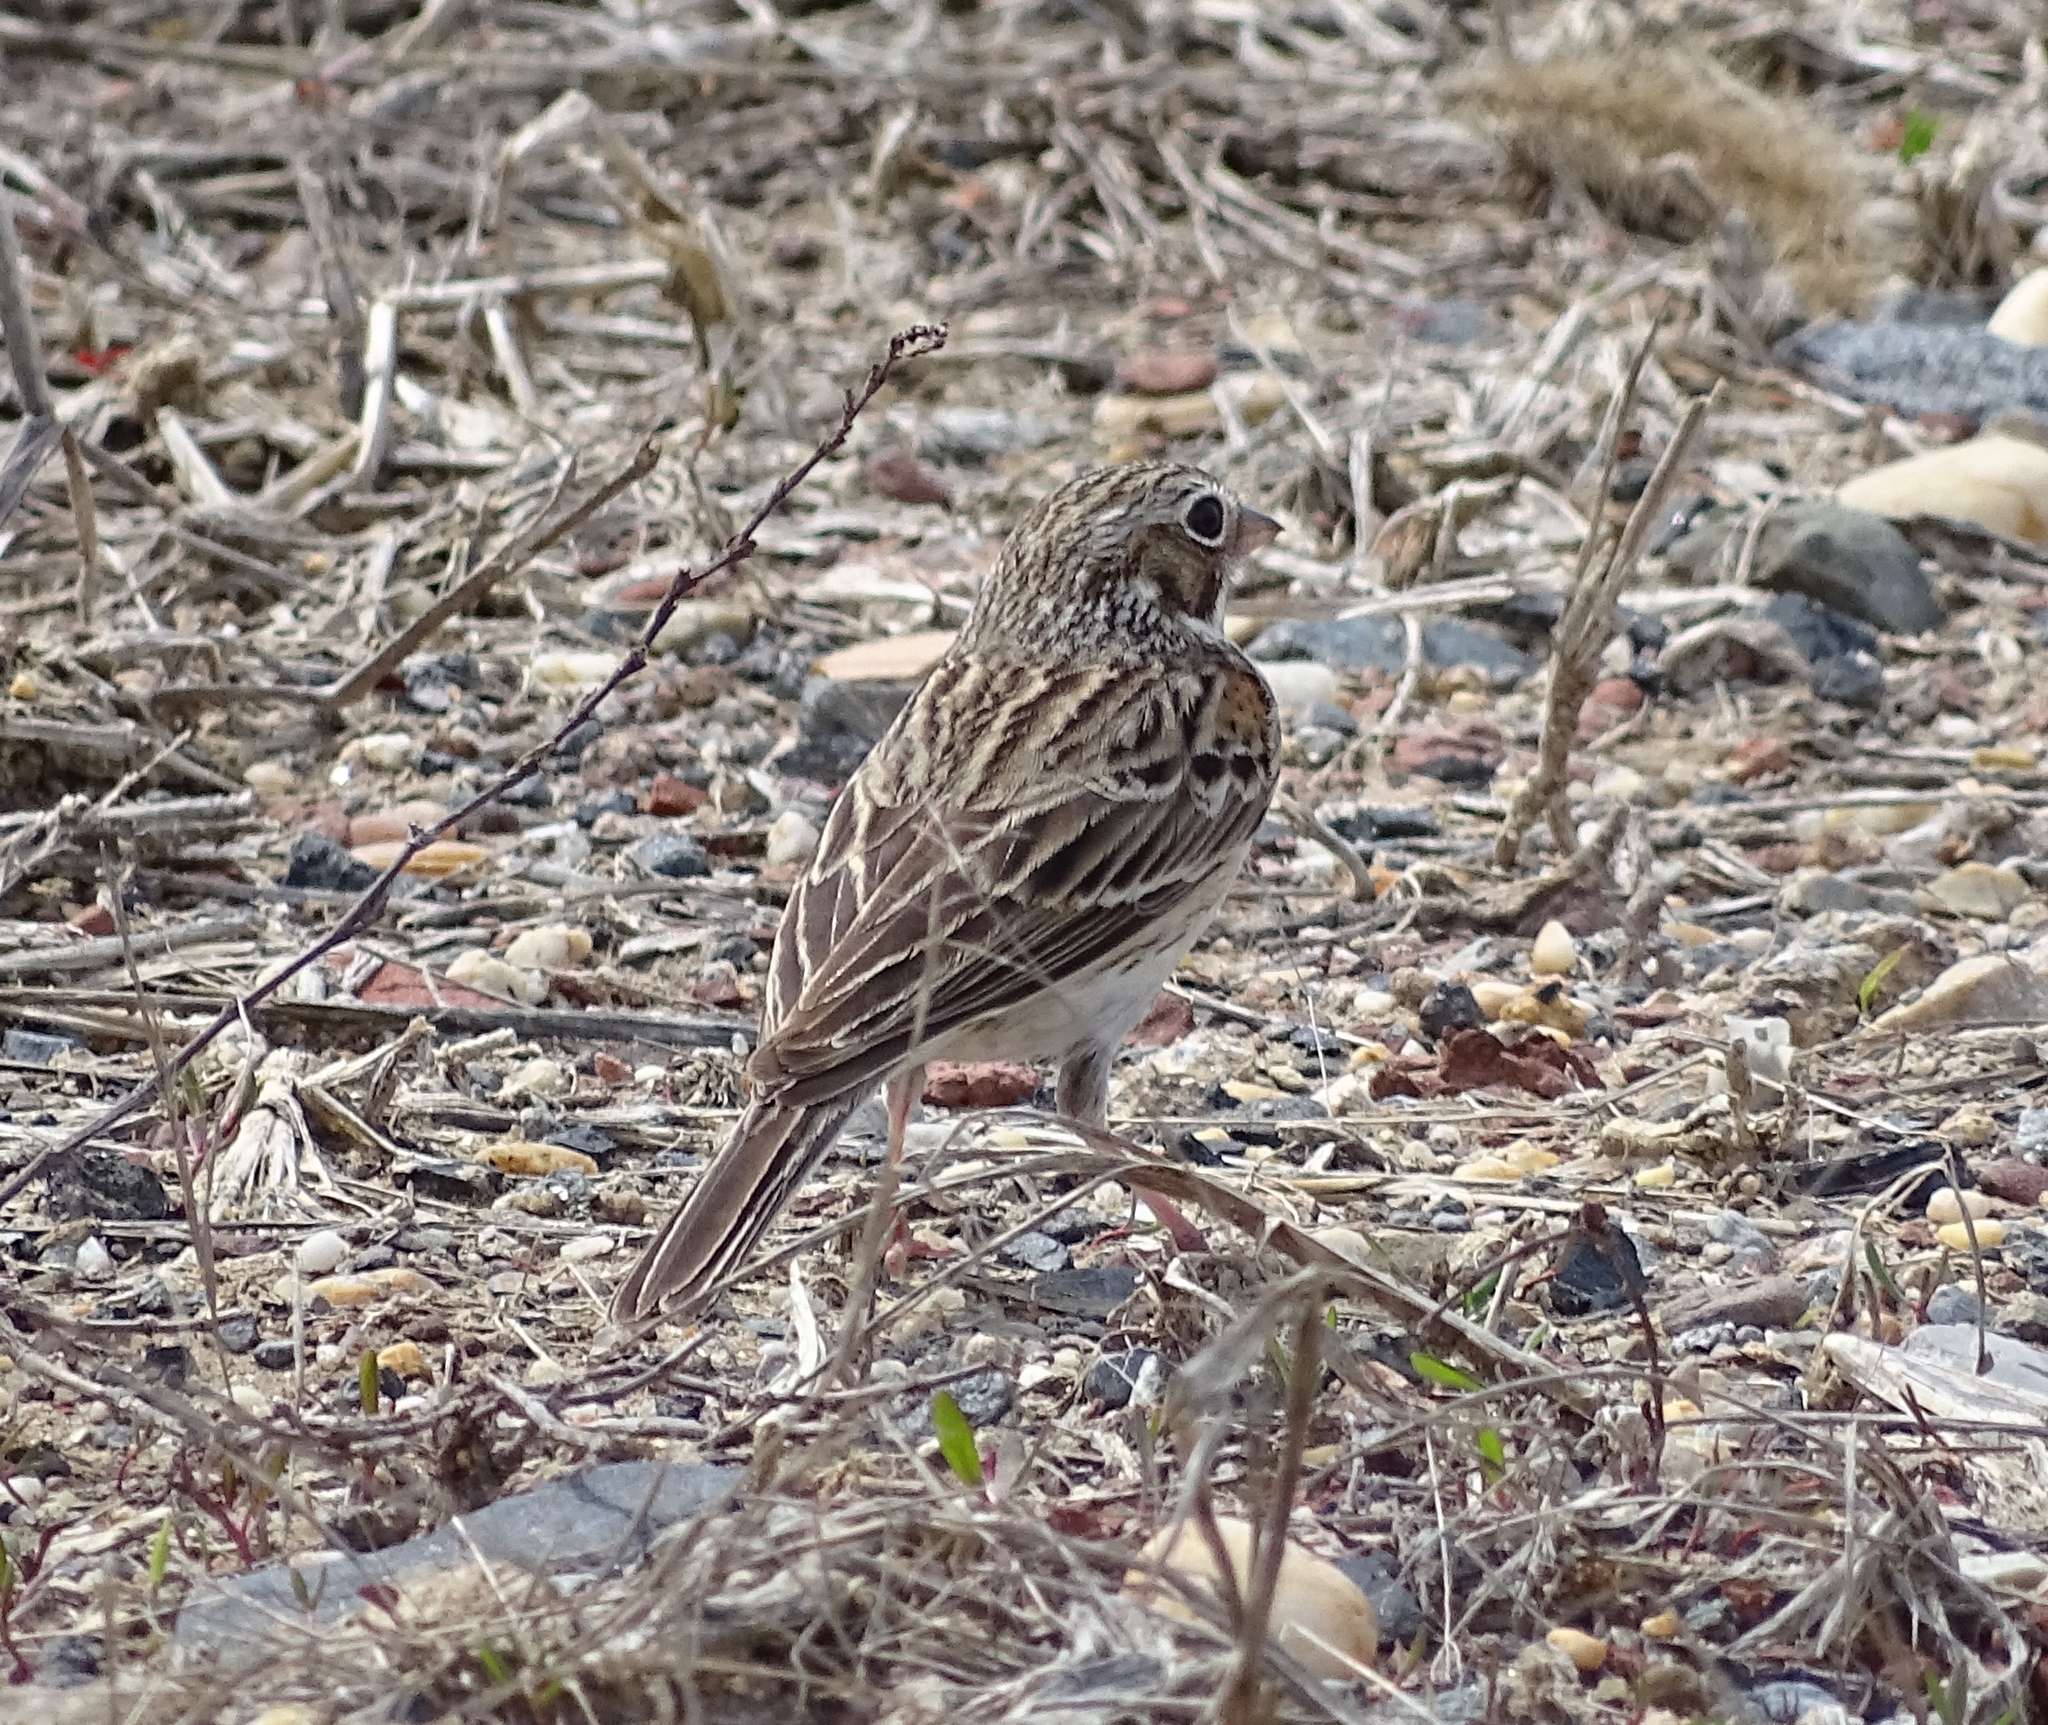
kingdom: Animalia
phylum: Chordata
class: Aves
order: Passeriformes
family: Passerellidae
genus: Pooecetes
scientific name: Pooecetes gramineus
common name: Vesper sparrow
